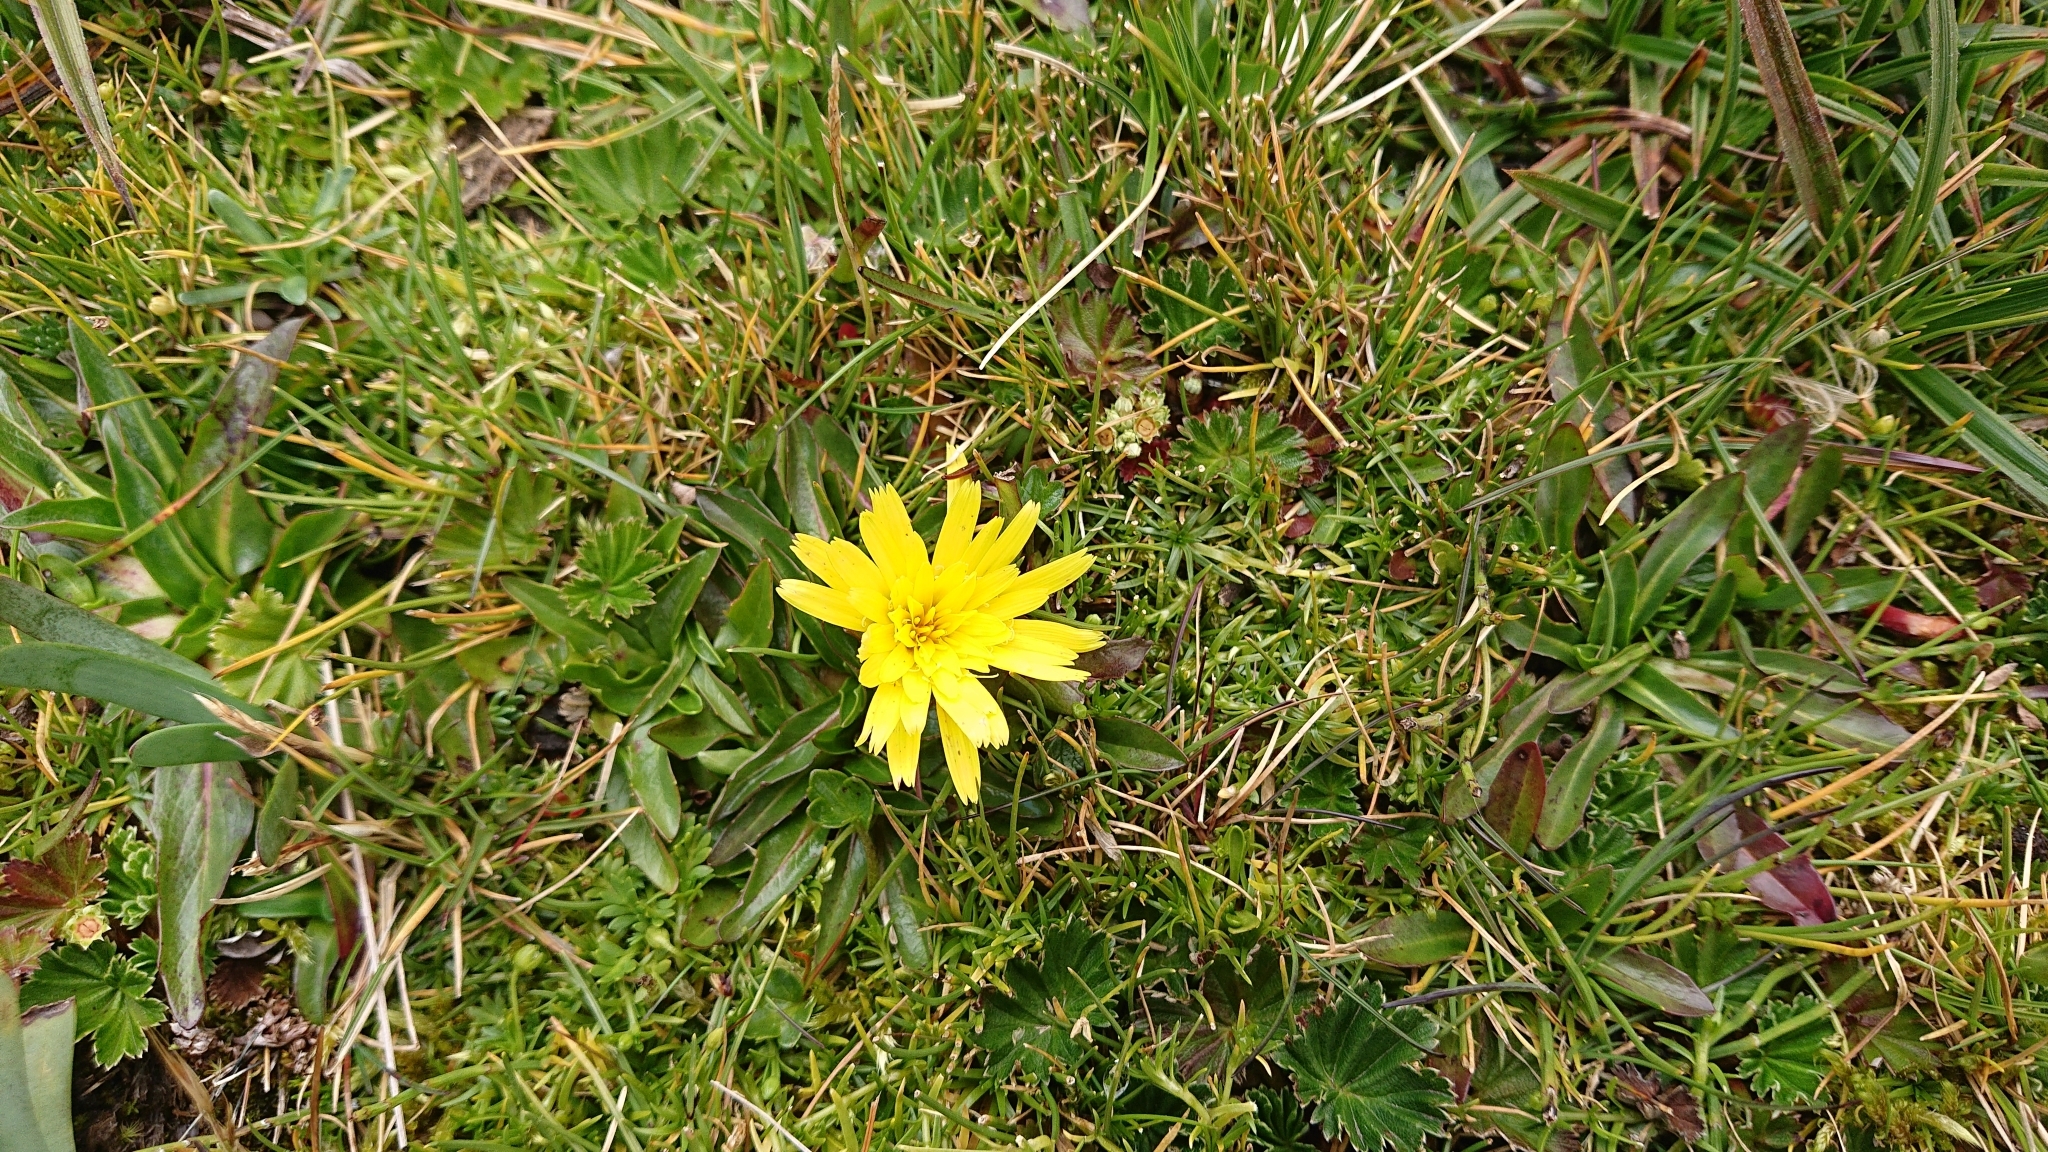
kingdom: Plantae
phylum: Tracheophyta
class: Magnoliopsida
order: Asterales
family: Asteraceae
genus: Hypochaeris
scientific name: Hypochaeris sessiliflora
